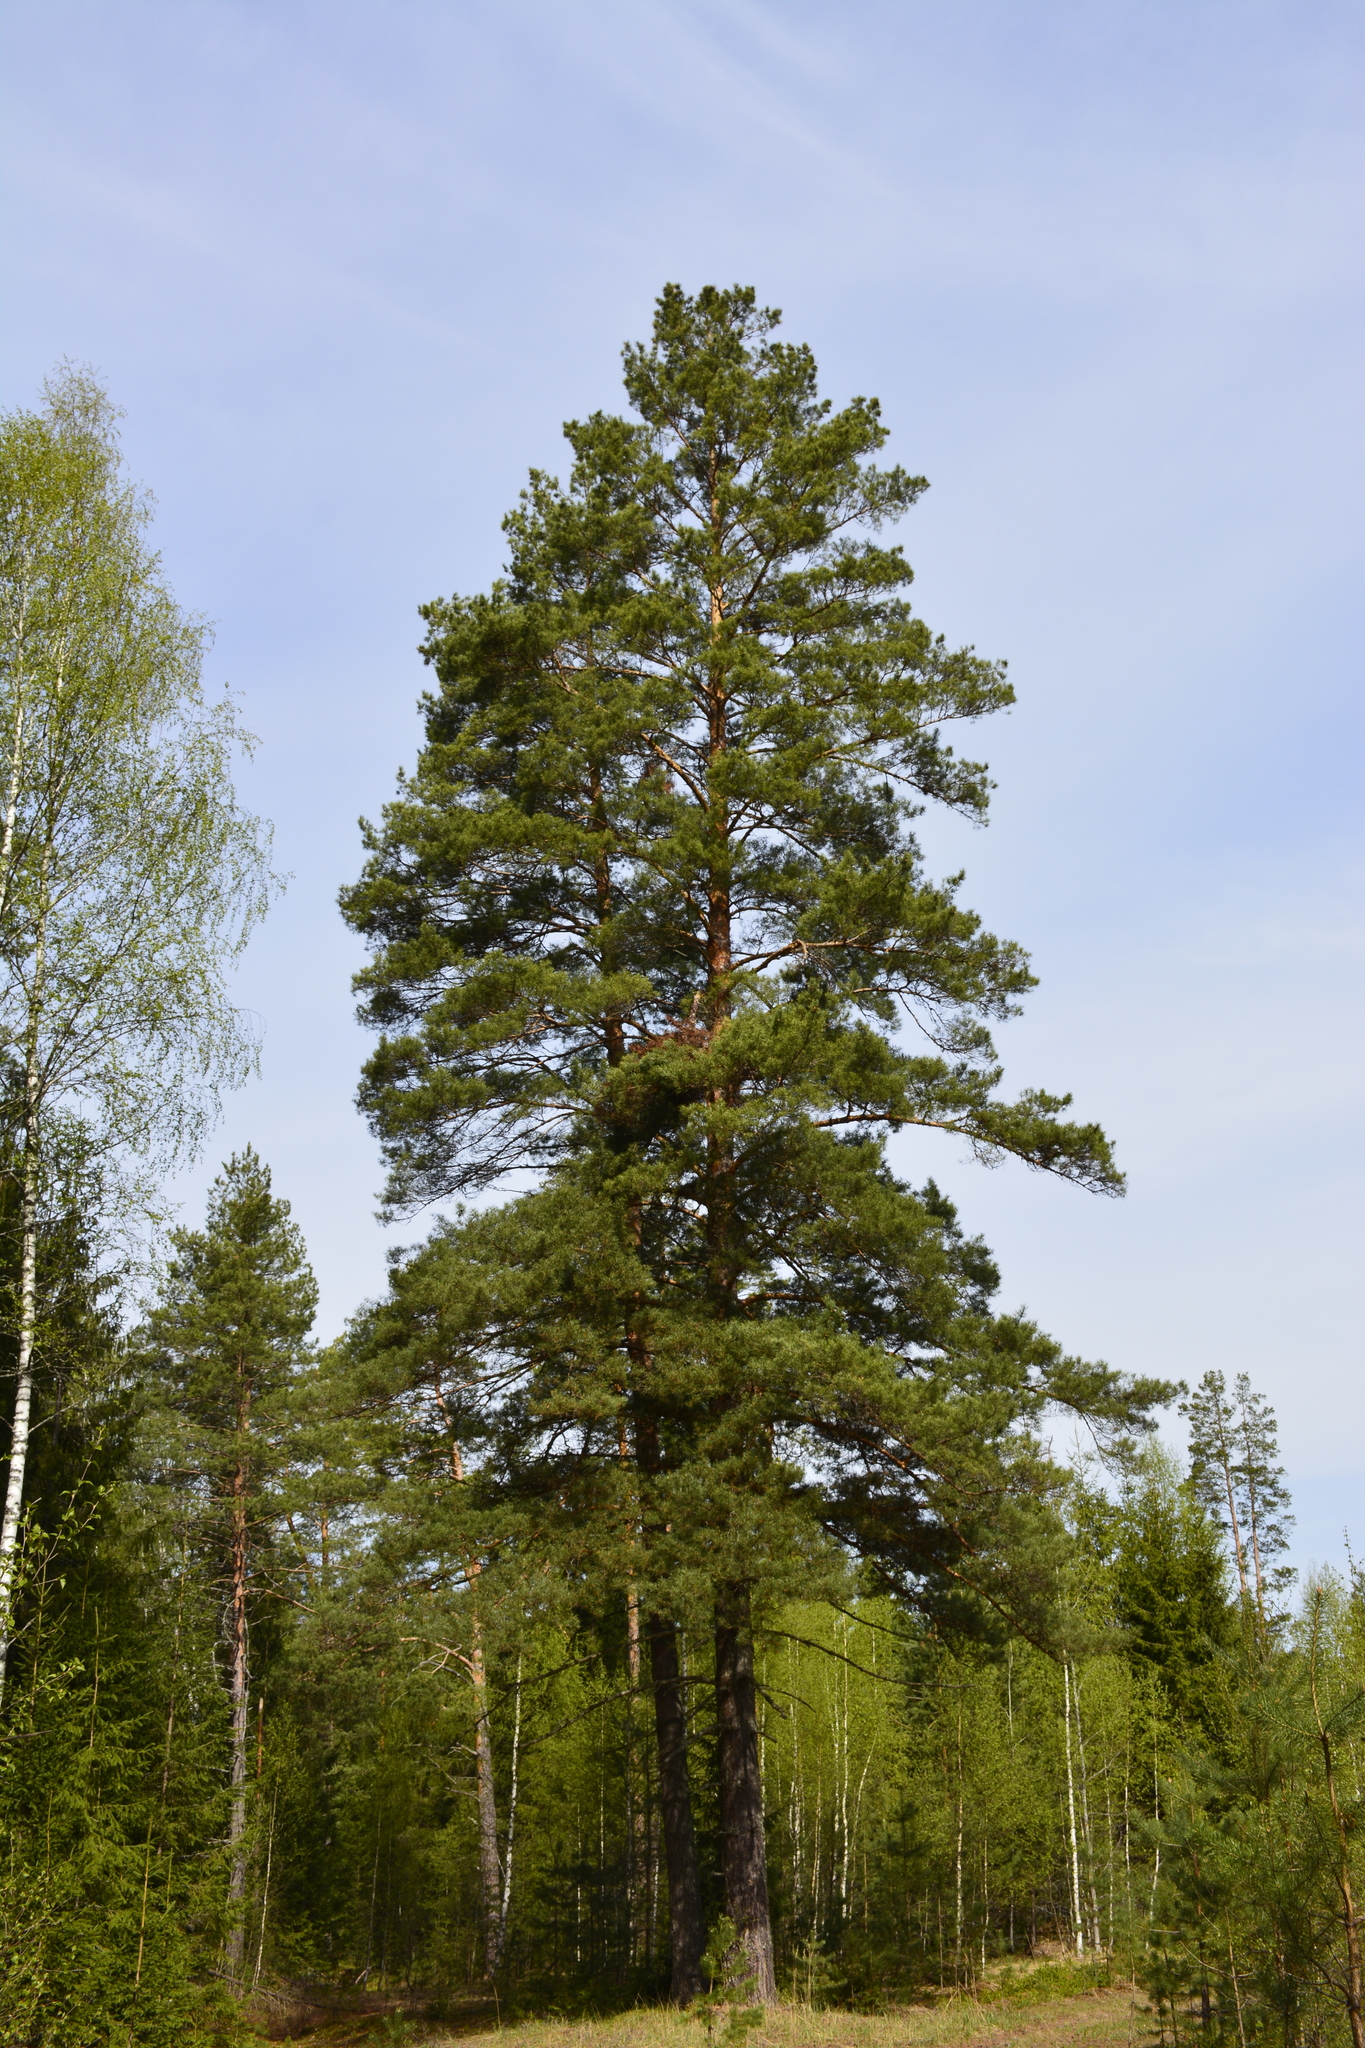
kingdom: Plantae
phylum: Tracheophyta
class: Pinopsida
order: Pinales
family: Pinaceae
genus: Pinus
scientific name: Pinus sylvestris
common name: Scots pine
